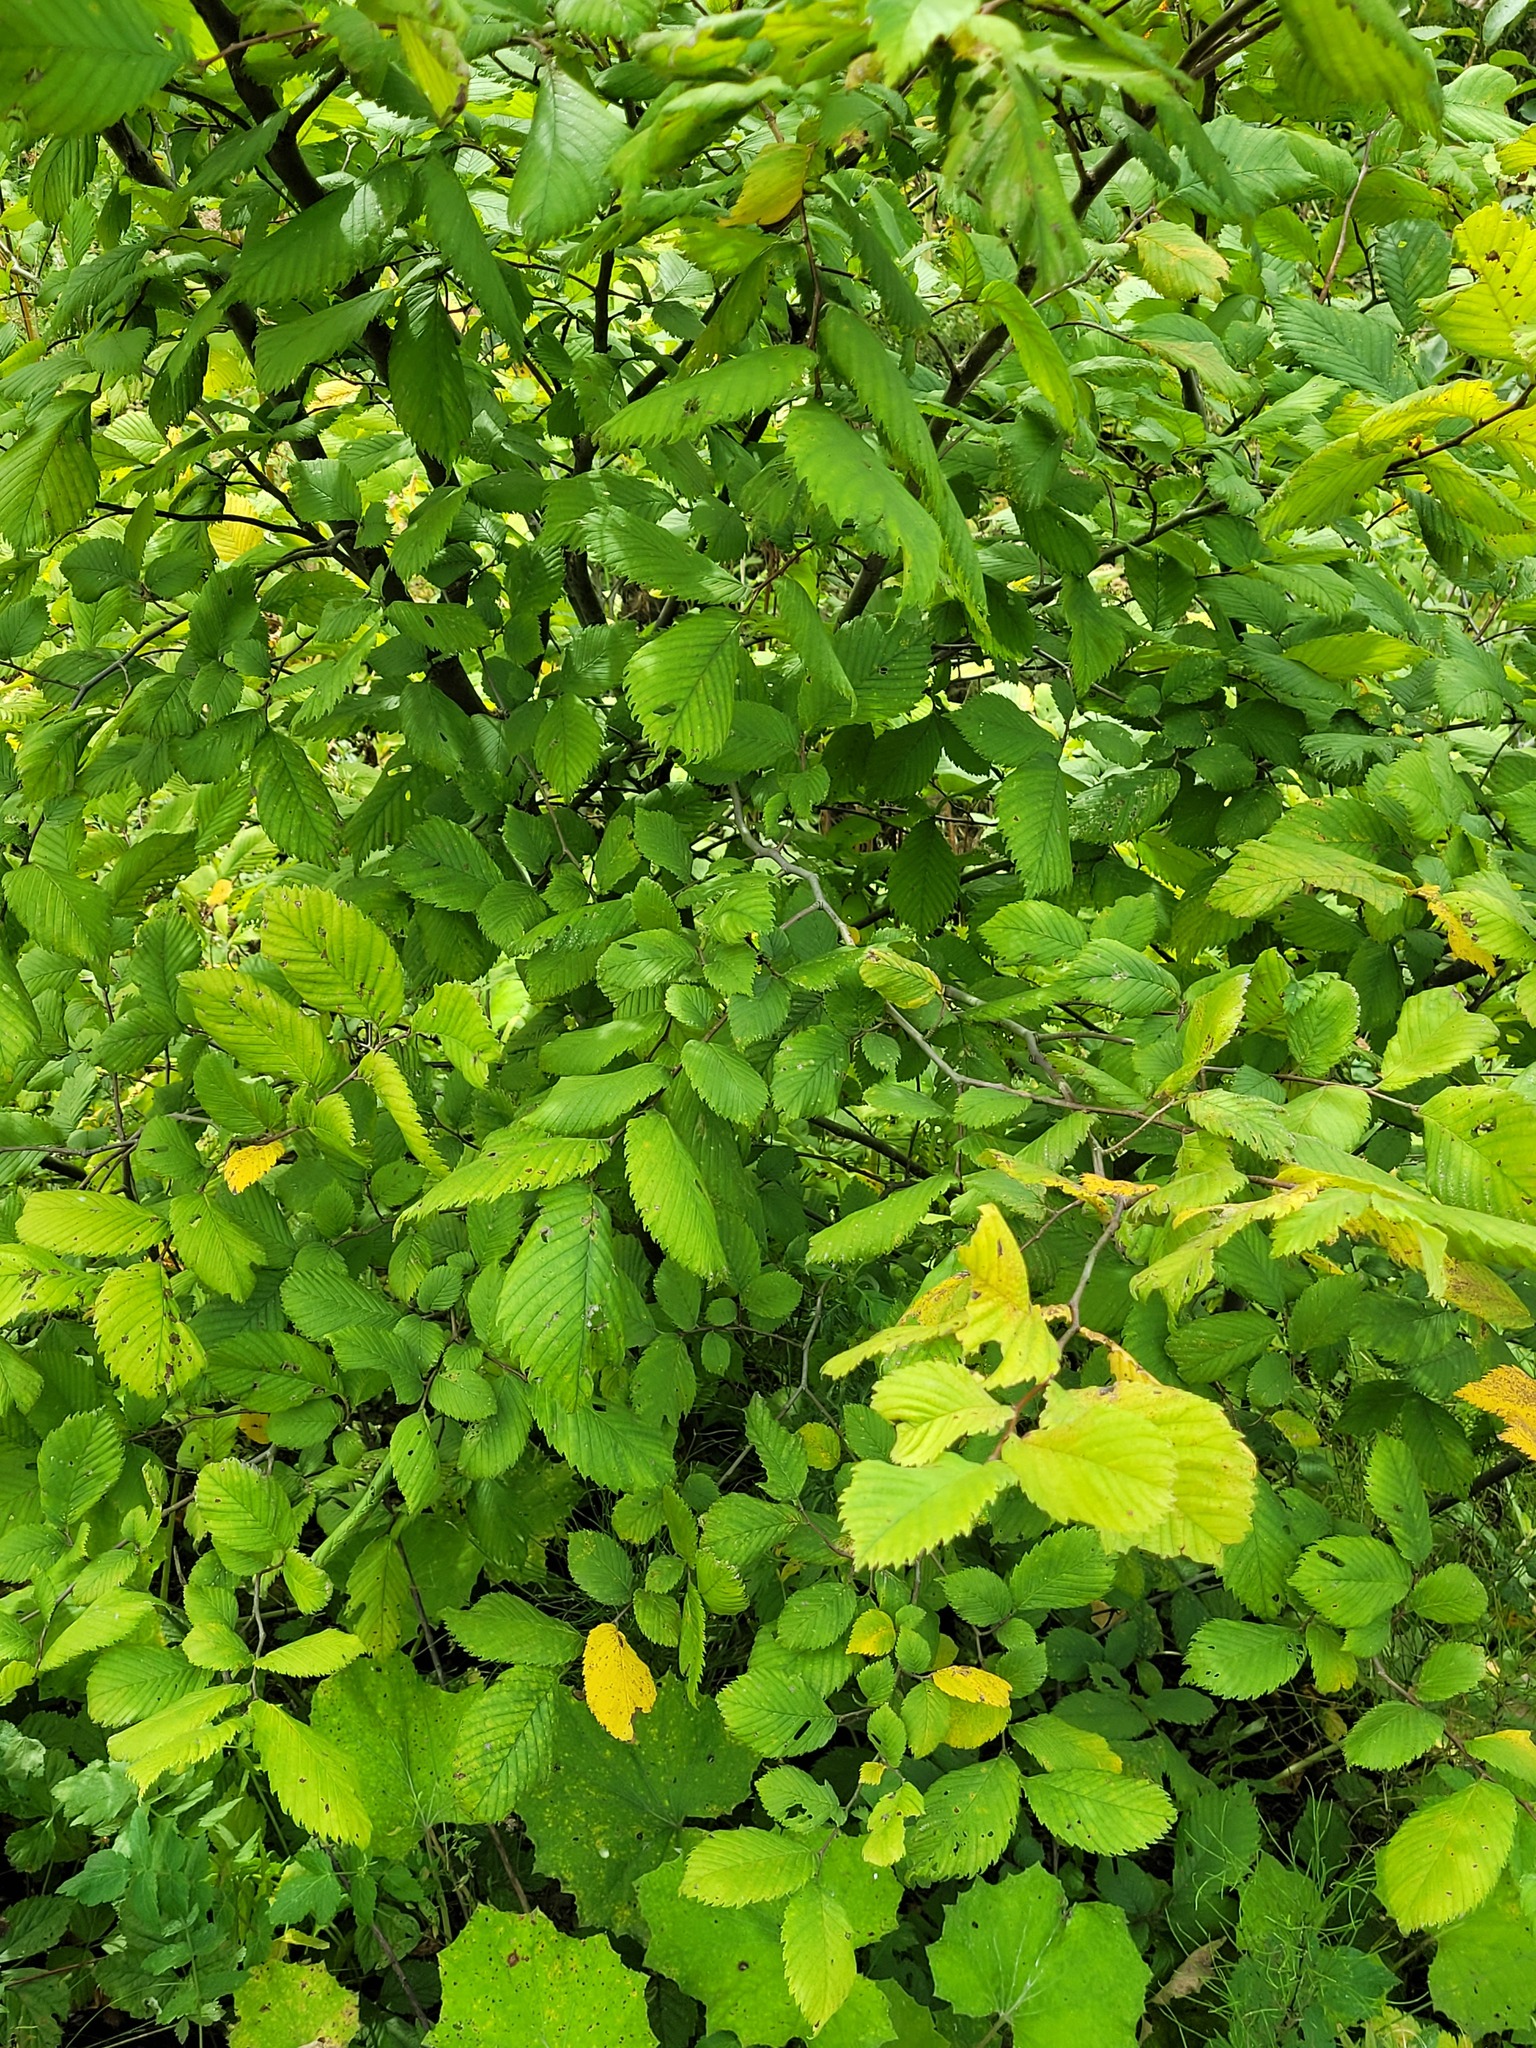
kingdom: Plantae
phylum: Tracheophyta
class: Magnoliopsida
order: Rosales
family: Ulmaceae
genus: Ulmus
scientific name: Ulmus laevis
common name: European white-elm
